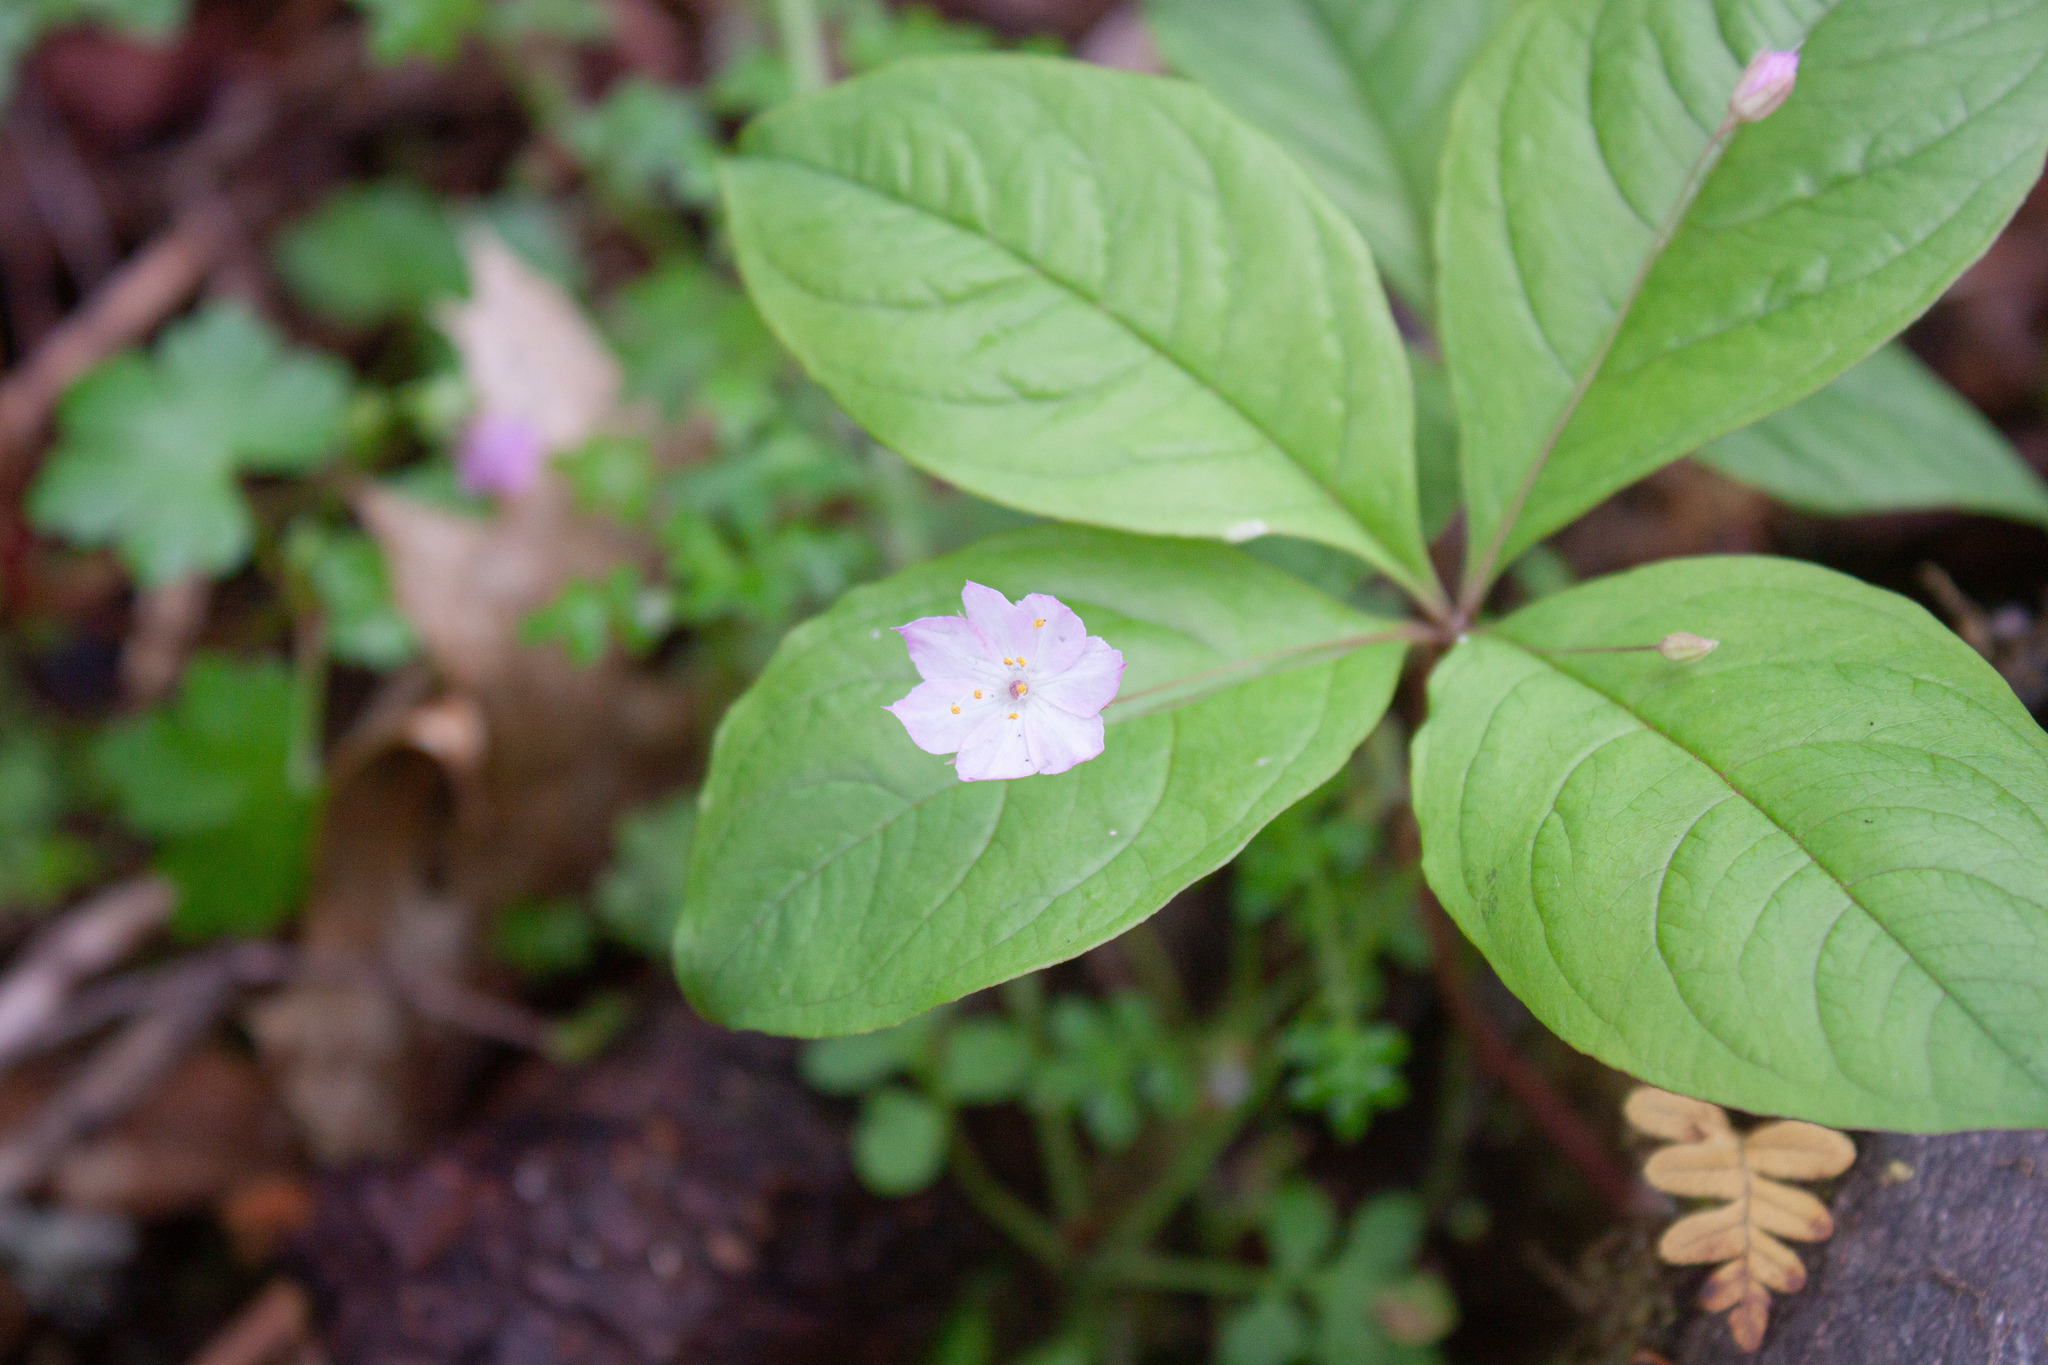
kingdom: Plantae
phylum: Tracheophyta
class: Magnoliopsida
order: Ericales
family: Primulaceae
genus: Lysimachia
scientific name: Lysimachia latifolia
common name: Pacific starflower
